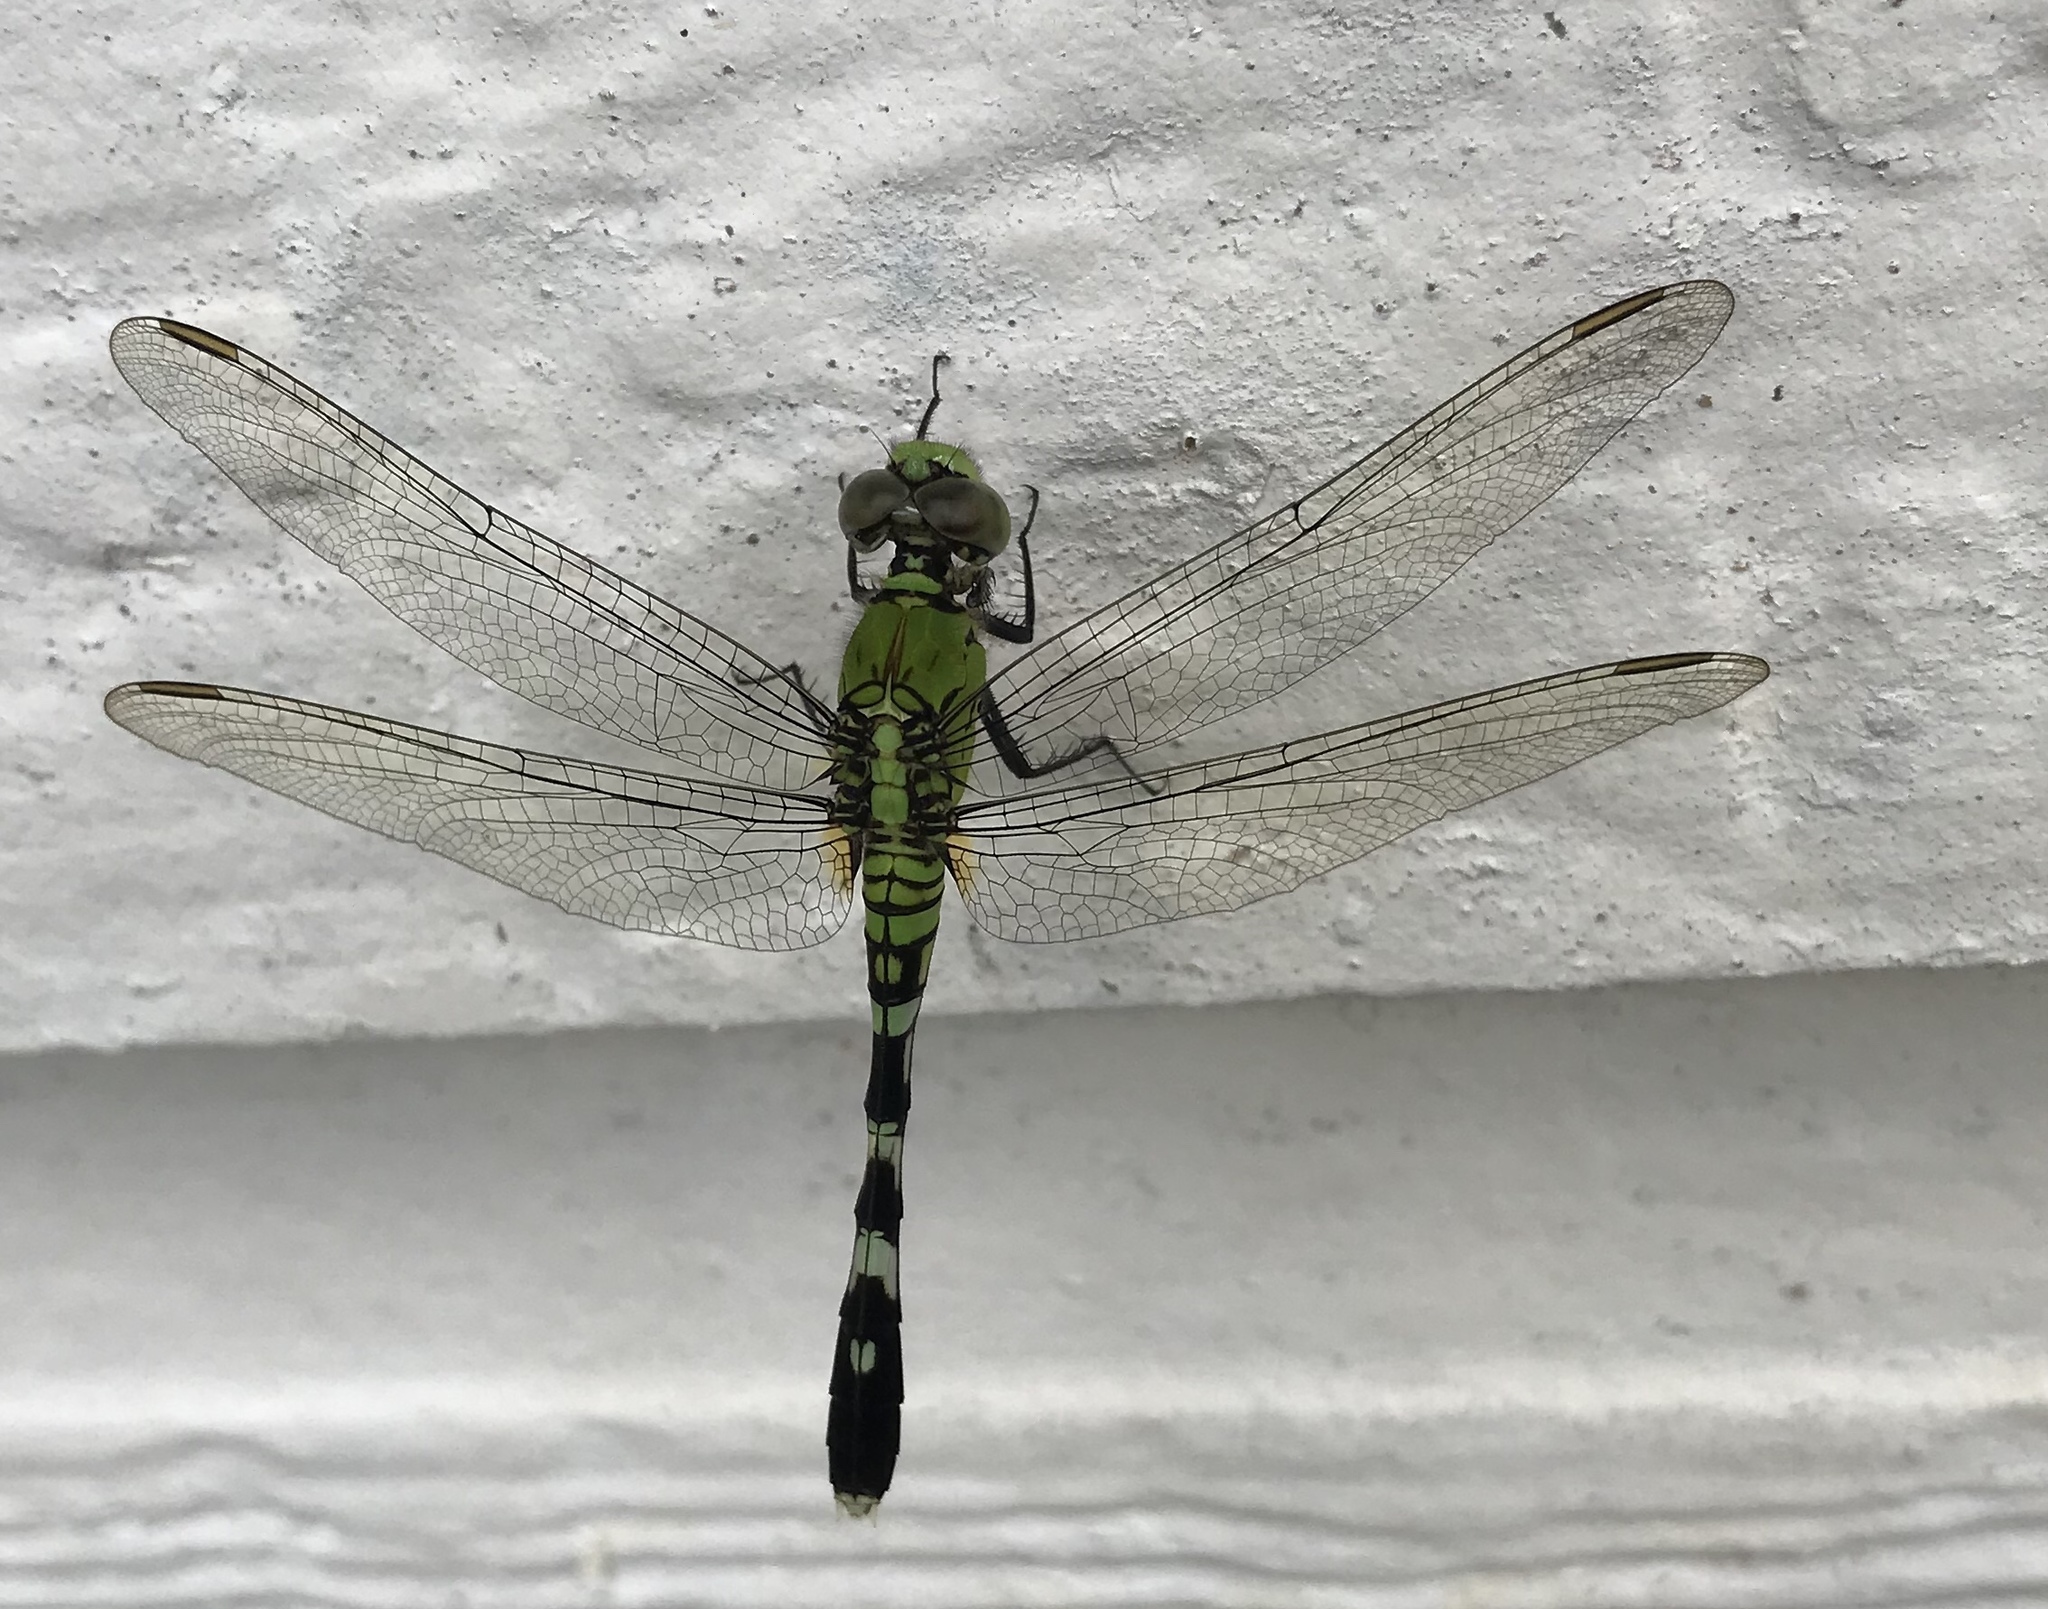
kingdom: Animalia
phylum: Arthropoda
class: Insecta
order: Odonata
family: Libellulidae
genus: Erythemis
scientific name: Erythemis simplicicollis
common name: Eastern pondhawk
